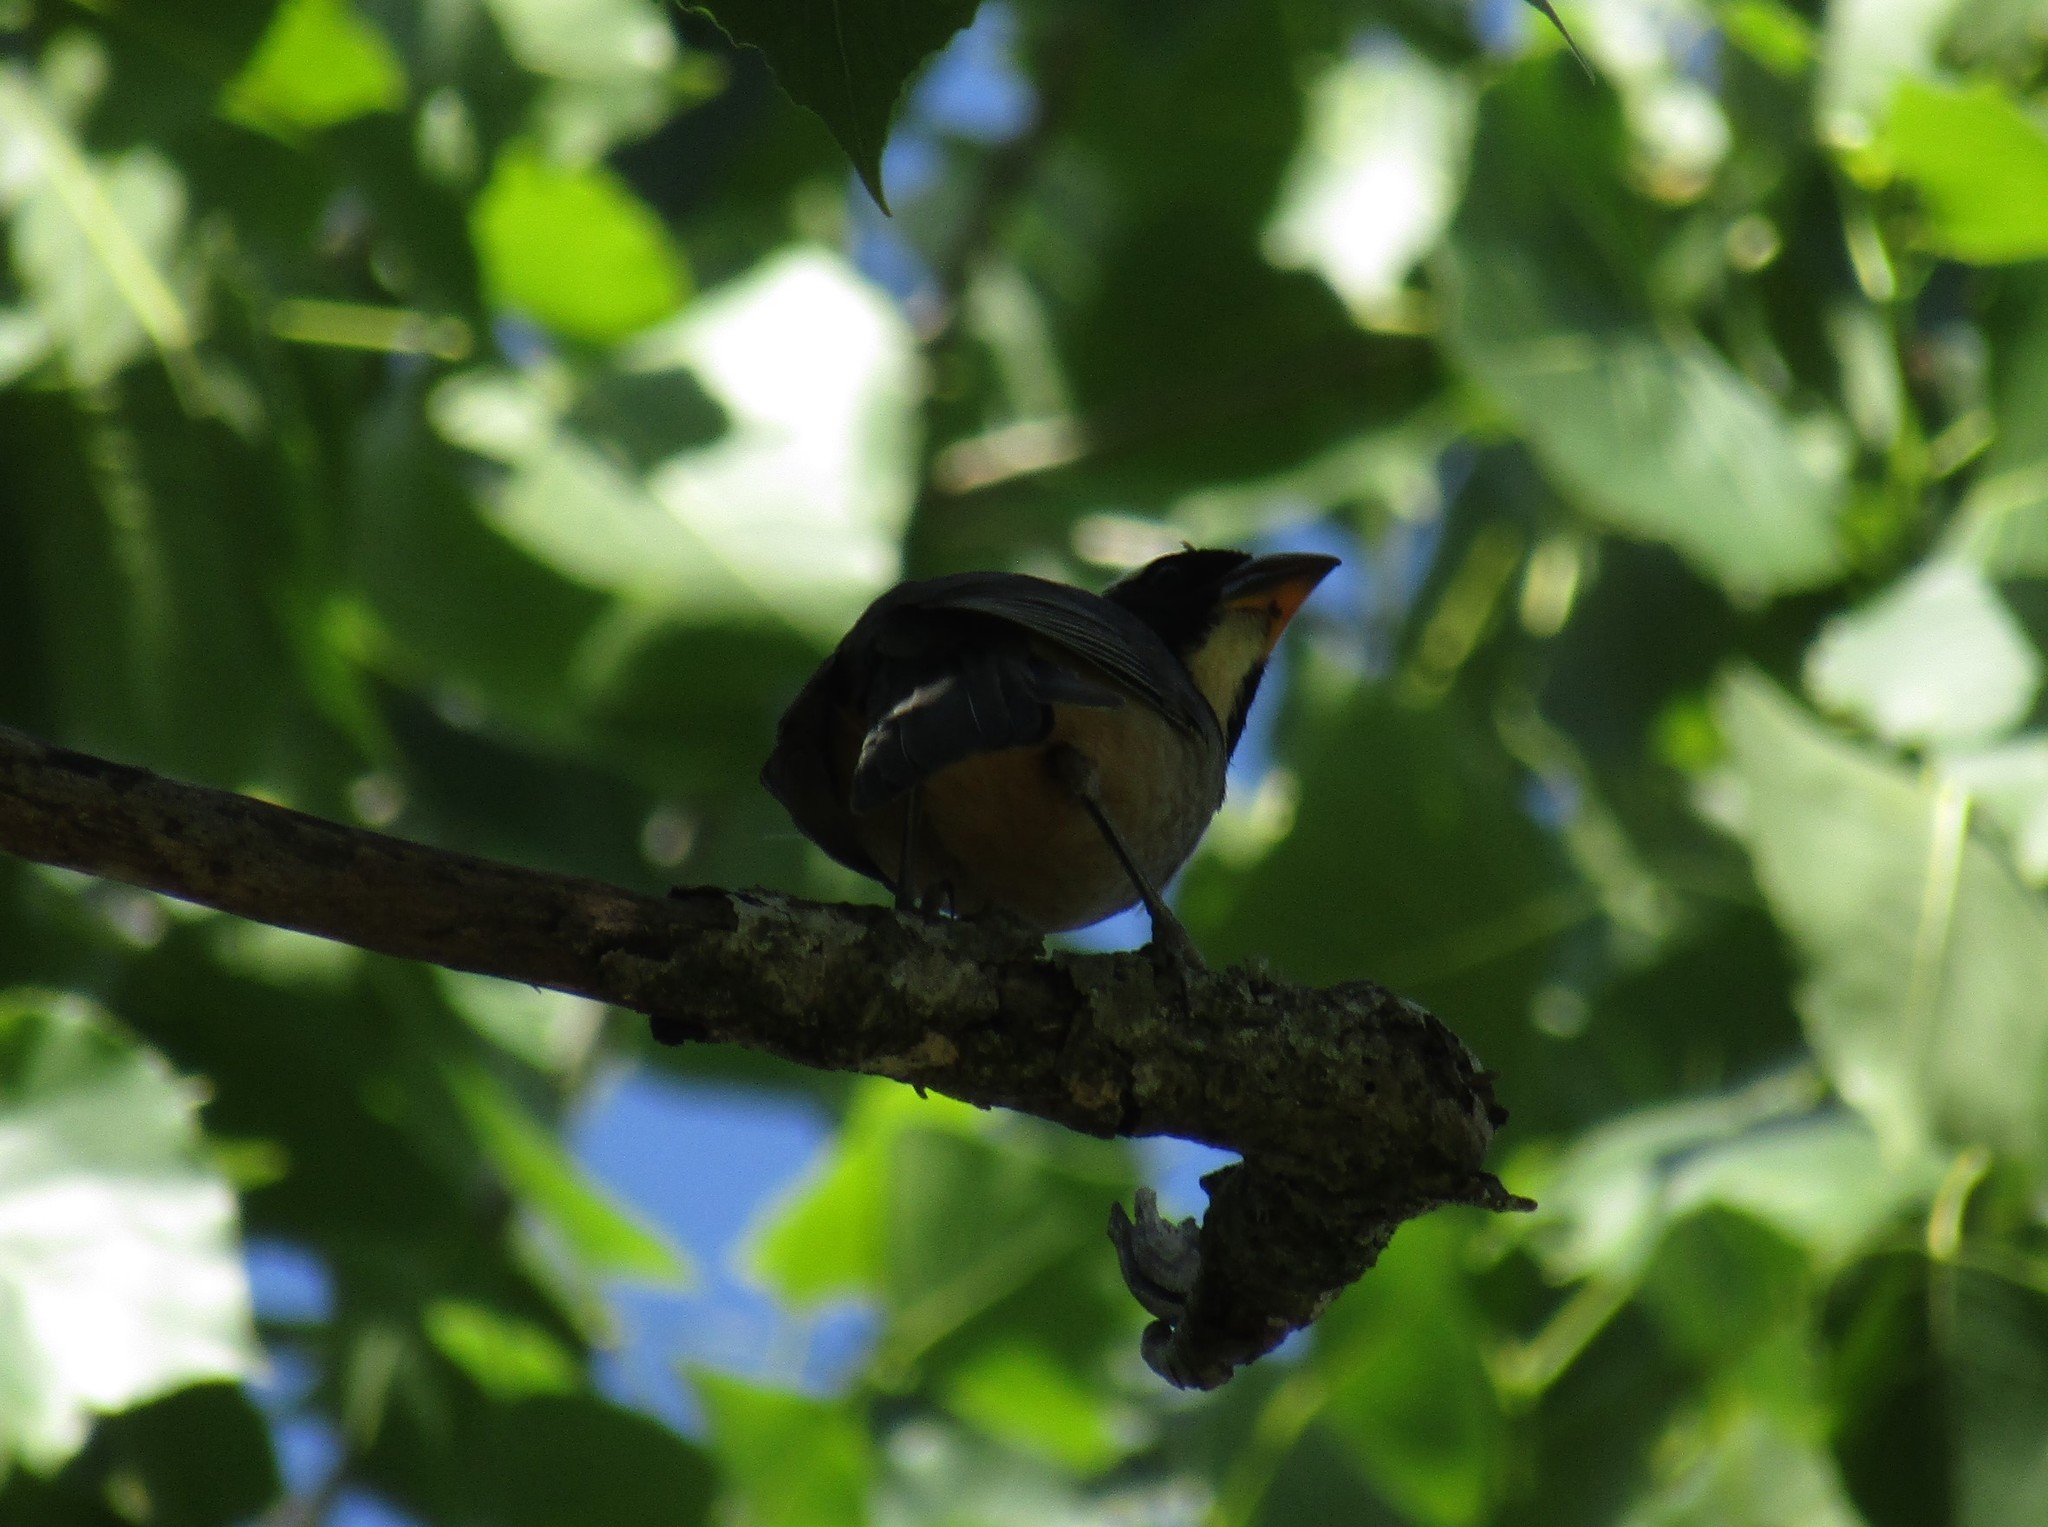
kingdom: Animalia
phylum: Chordata
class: Aves
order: Passeriformes
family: Thraupidae
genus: Saltator
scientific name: Saltator aurantiirostris
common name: Golden-billed saltator
